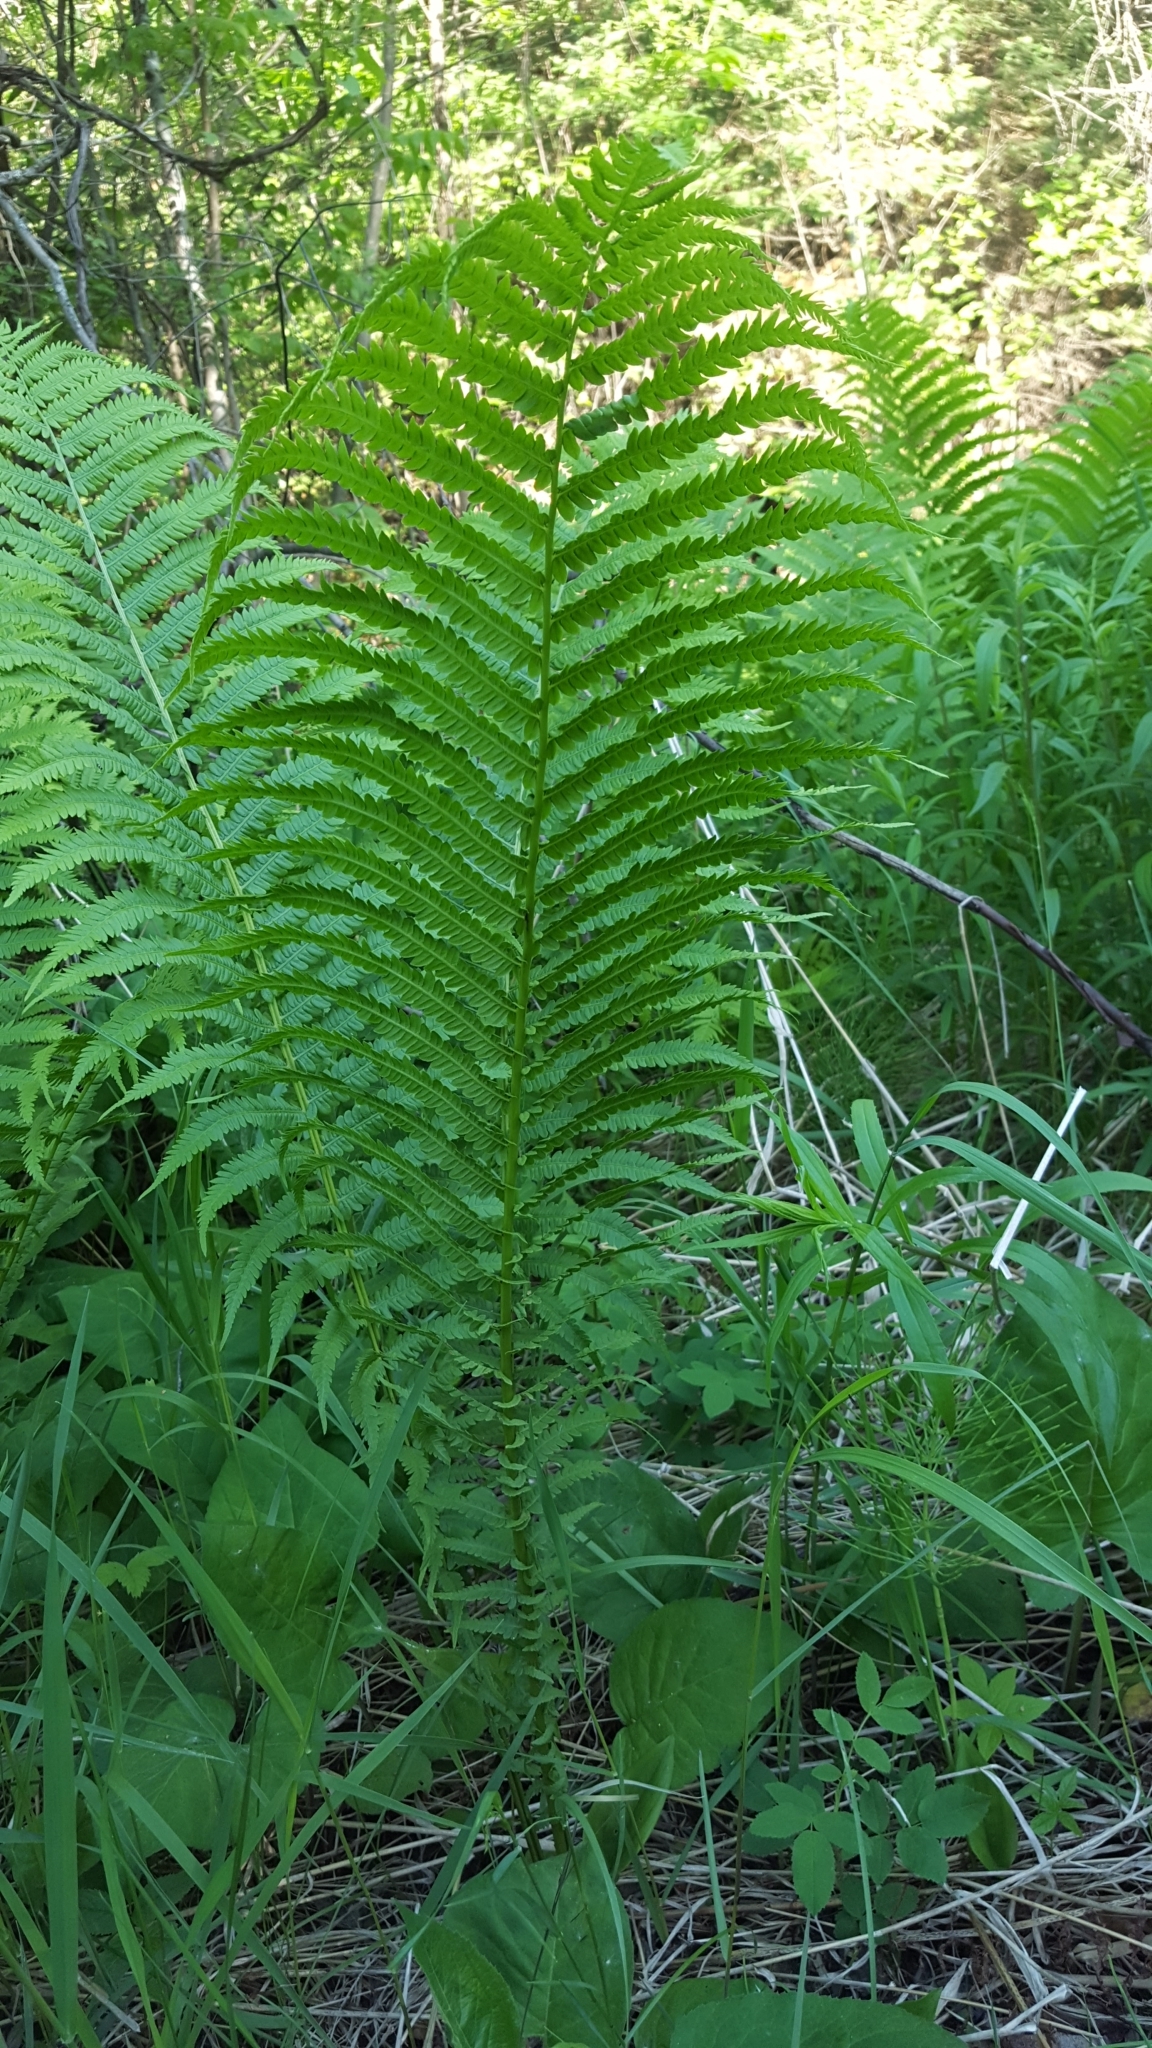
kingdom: Plantae
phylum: Tracheophyta
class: Polypodiopsida
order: Polypodiales
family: Onocleaceae
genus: Matteuccia
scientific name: Matteuccia struthiopteris
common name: Ostrich fern
